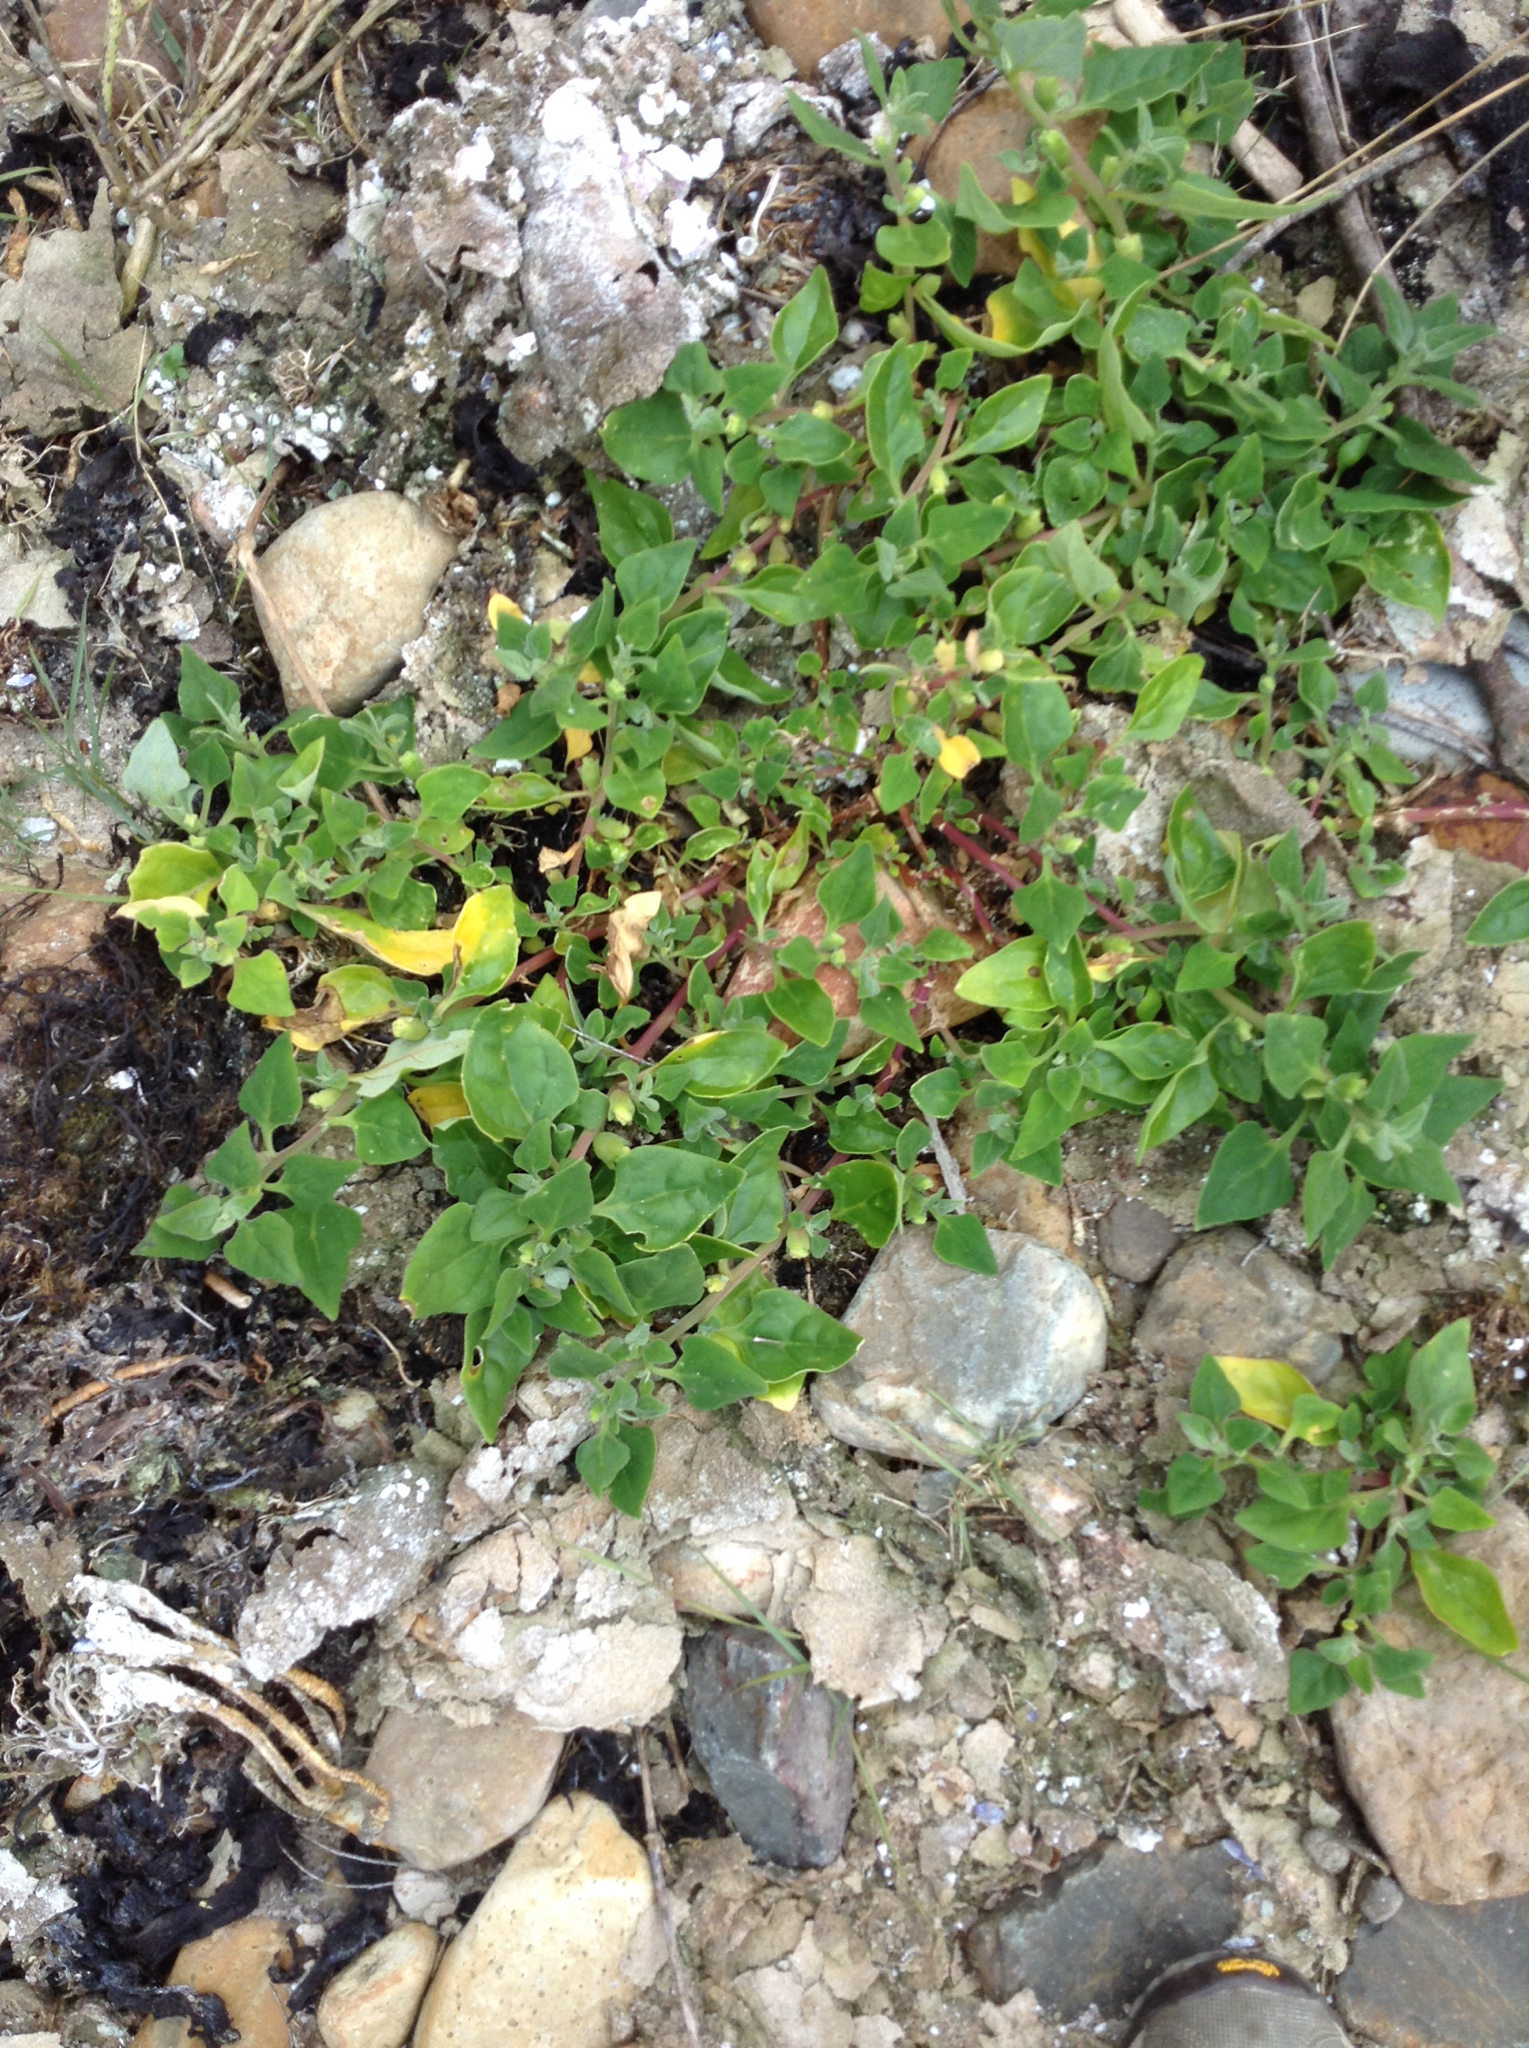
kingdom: Plantae
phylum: Tracheophyta
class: Magnoliopsida
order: Caryophyllales
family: Aizoaceae
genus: Tetragonia
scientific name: Tetragonia tetragonoides
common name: New zealand-spinach
